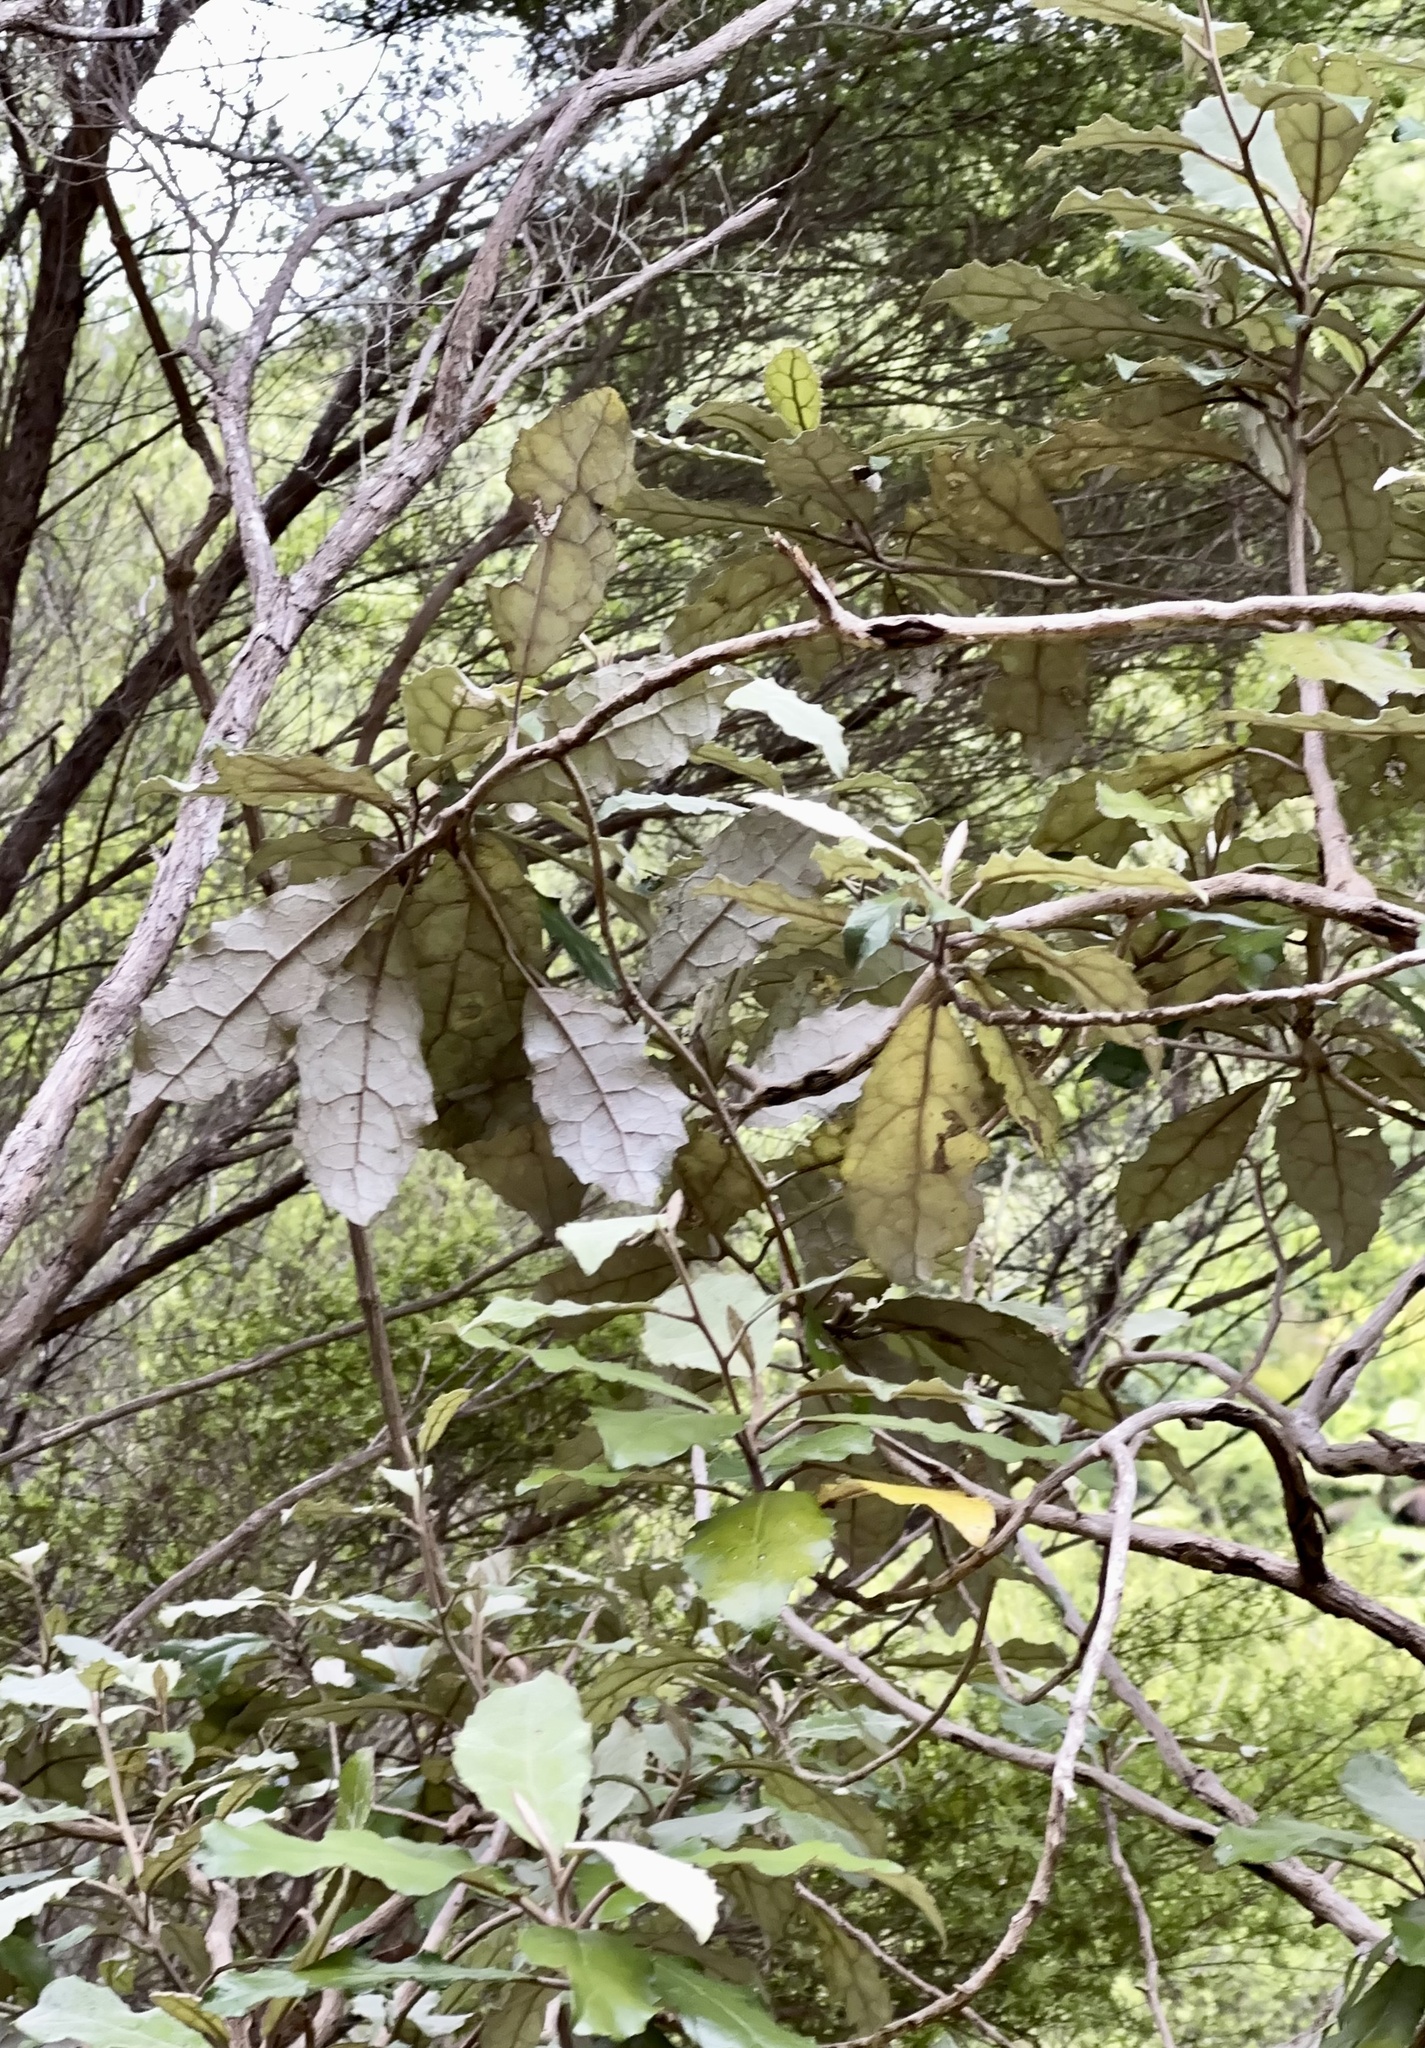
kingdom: Plantae
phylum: Tracheophyta
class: Magnoliopsida
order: Asterales
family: Asteraceae
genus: Olearia
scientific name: Olearia rani
